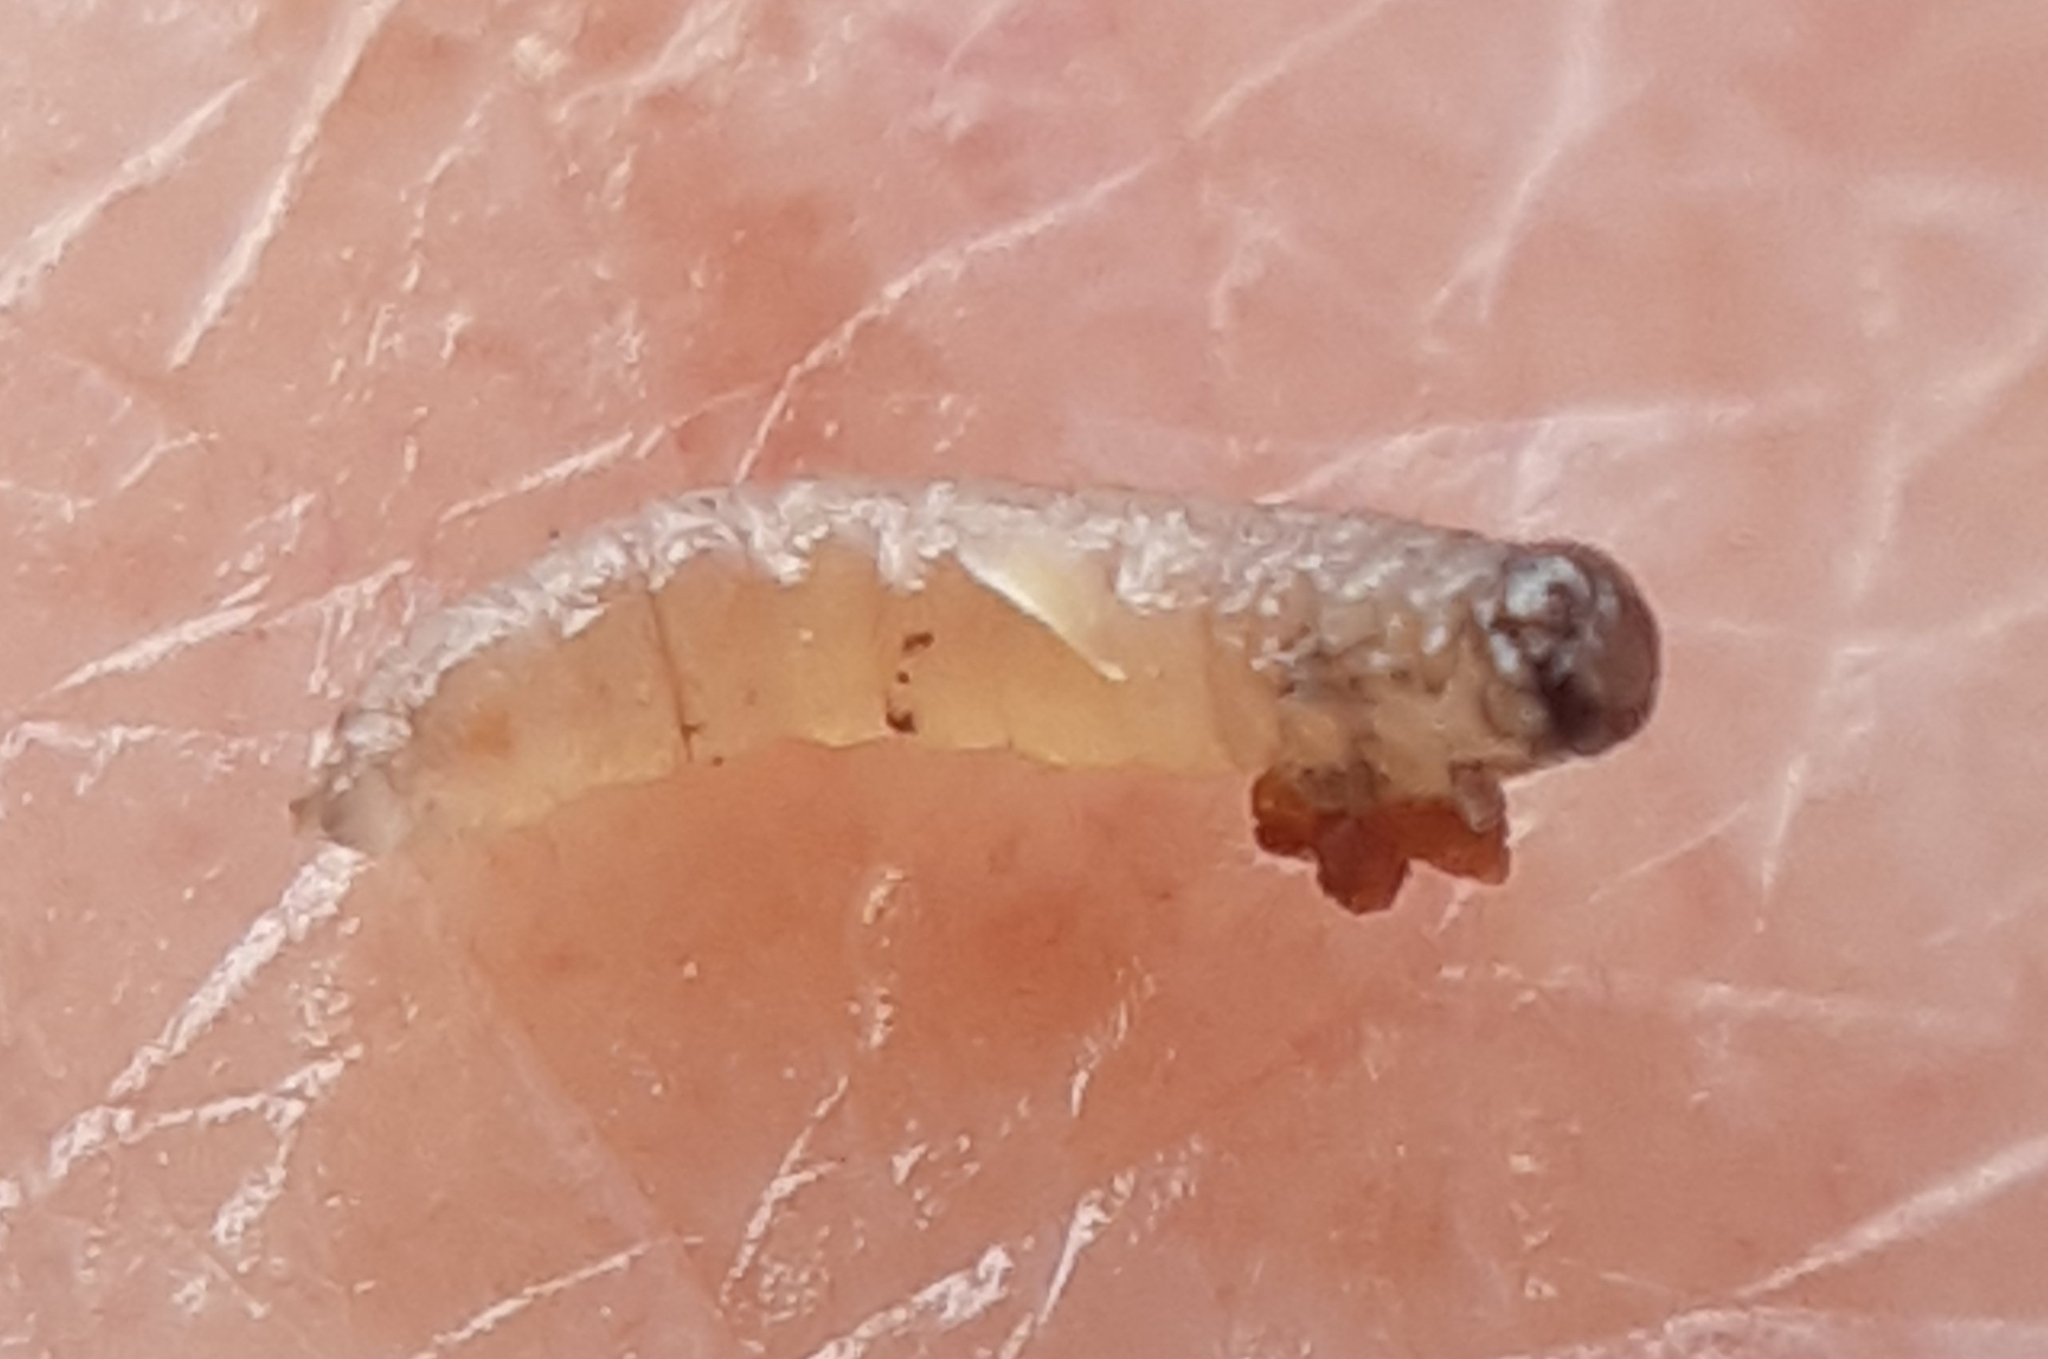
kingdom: Animalia
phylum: Arthropoda
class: Insecta
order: Hymenoptera
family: Tenthredinidae
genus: Euura
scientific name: Euura
